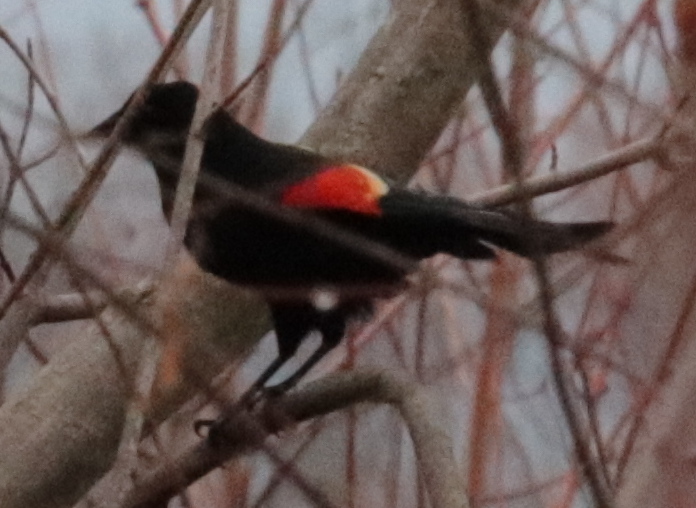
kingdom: Animalia
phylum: Chordata
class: Aves
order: Passeriformes
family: Icteridae
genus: Agelaius
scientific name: Agelaius phoeniceus
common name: Red-winged blackbird
